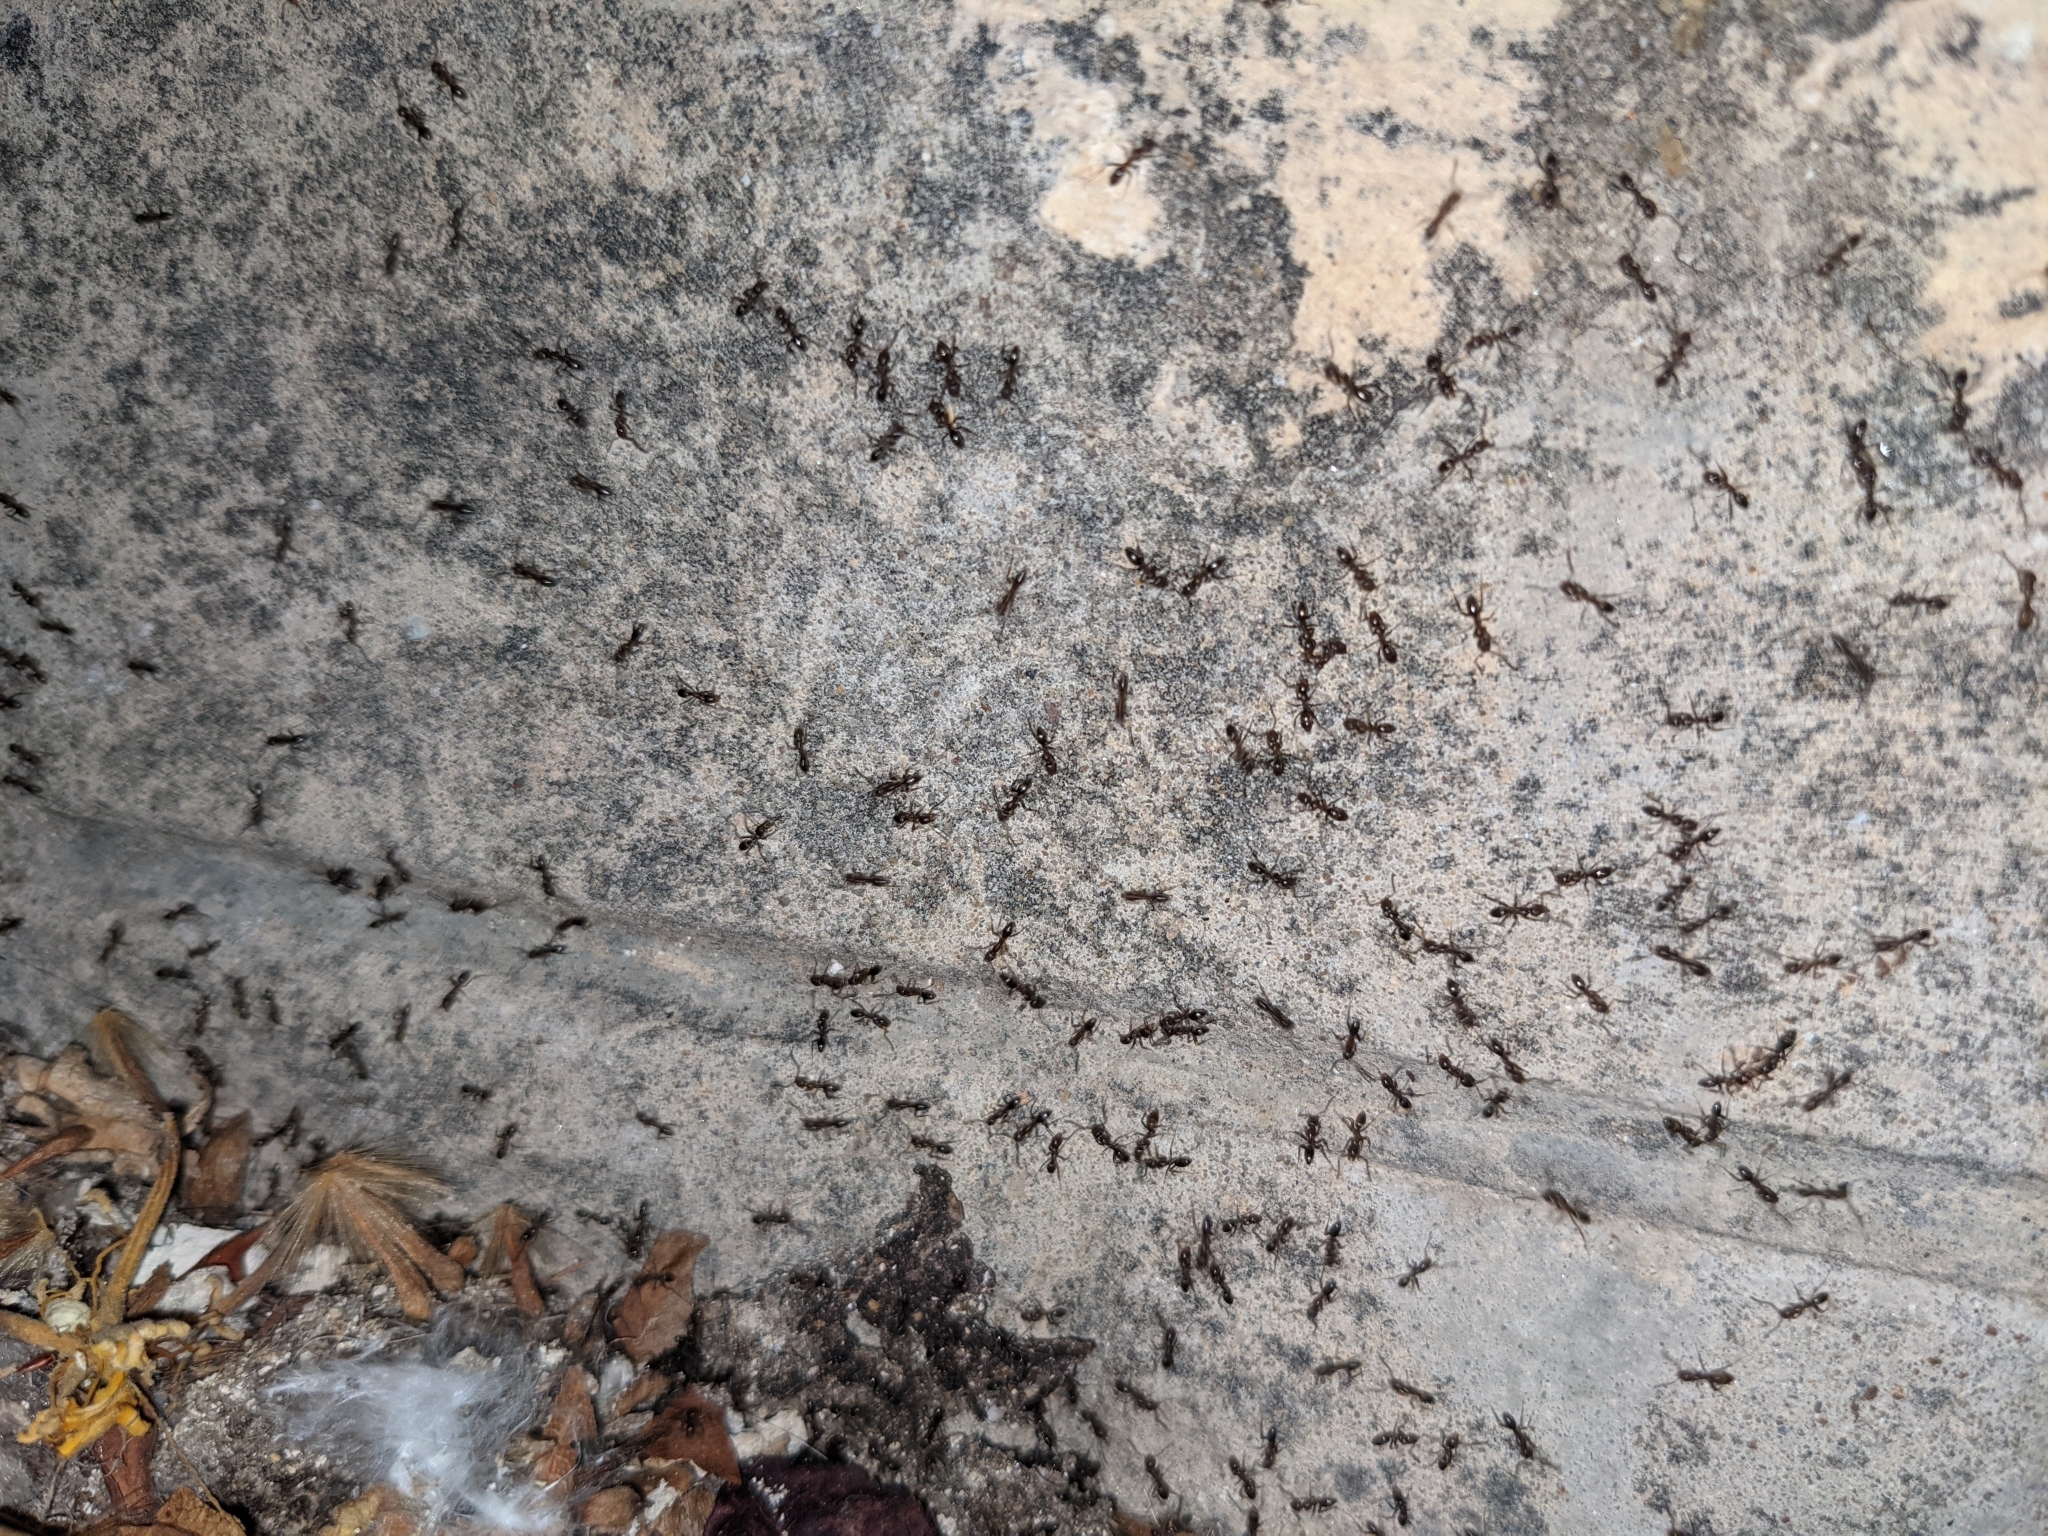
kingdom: Animalia
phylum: Arthropoda
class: Insecta
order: Hymenoptera
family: Formicidae
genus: Linepithema
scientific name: Linepithema humile
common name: Argentine ant
